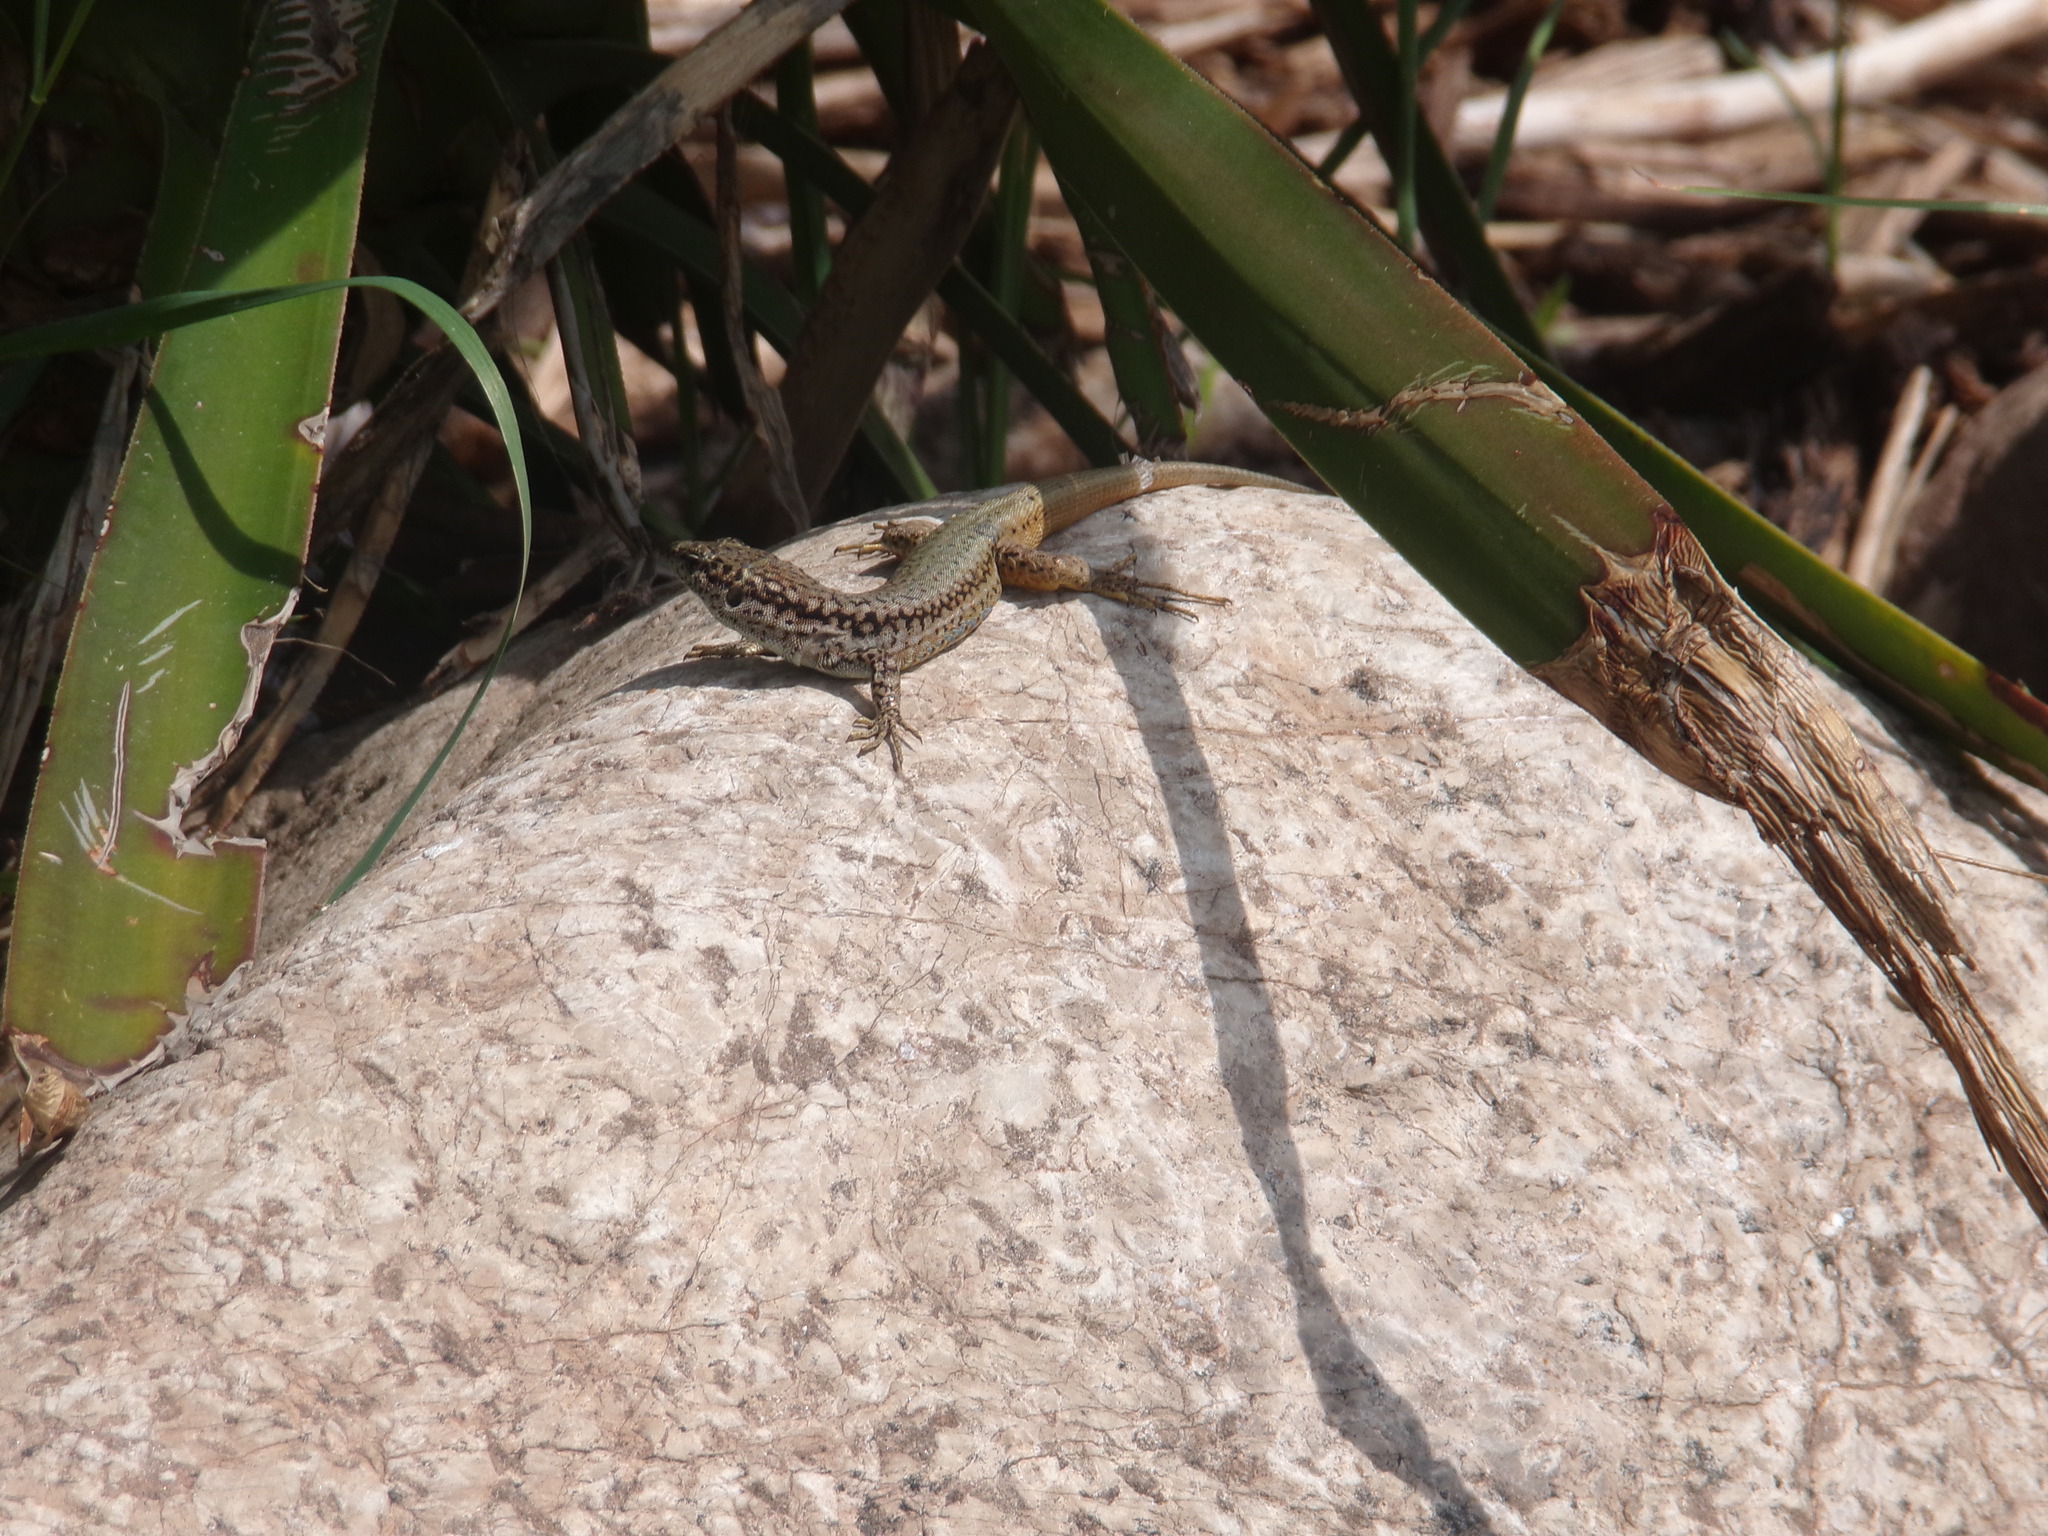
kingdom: Animalia
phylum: Chordata
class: Squamata
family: Lacertidae
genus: Podarcis
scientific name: Podarcis virescens
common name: Geniez’s wall lizard
